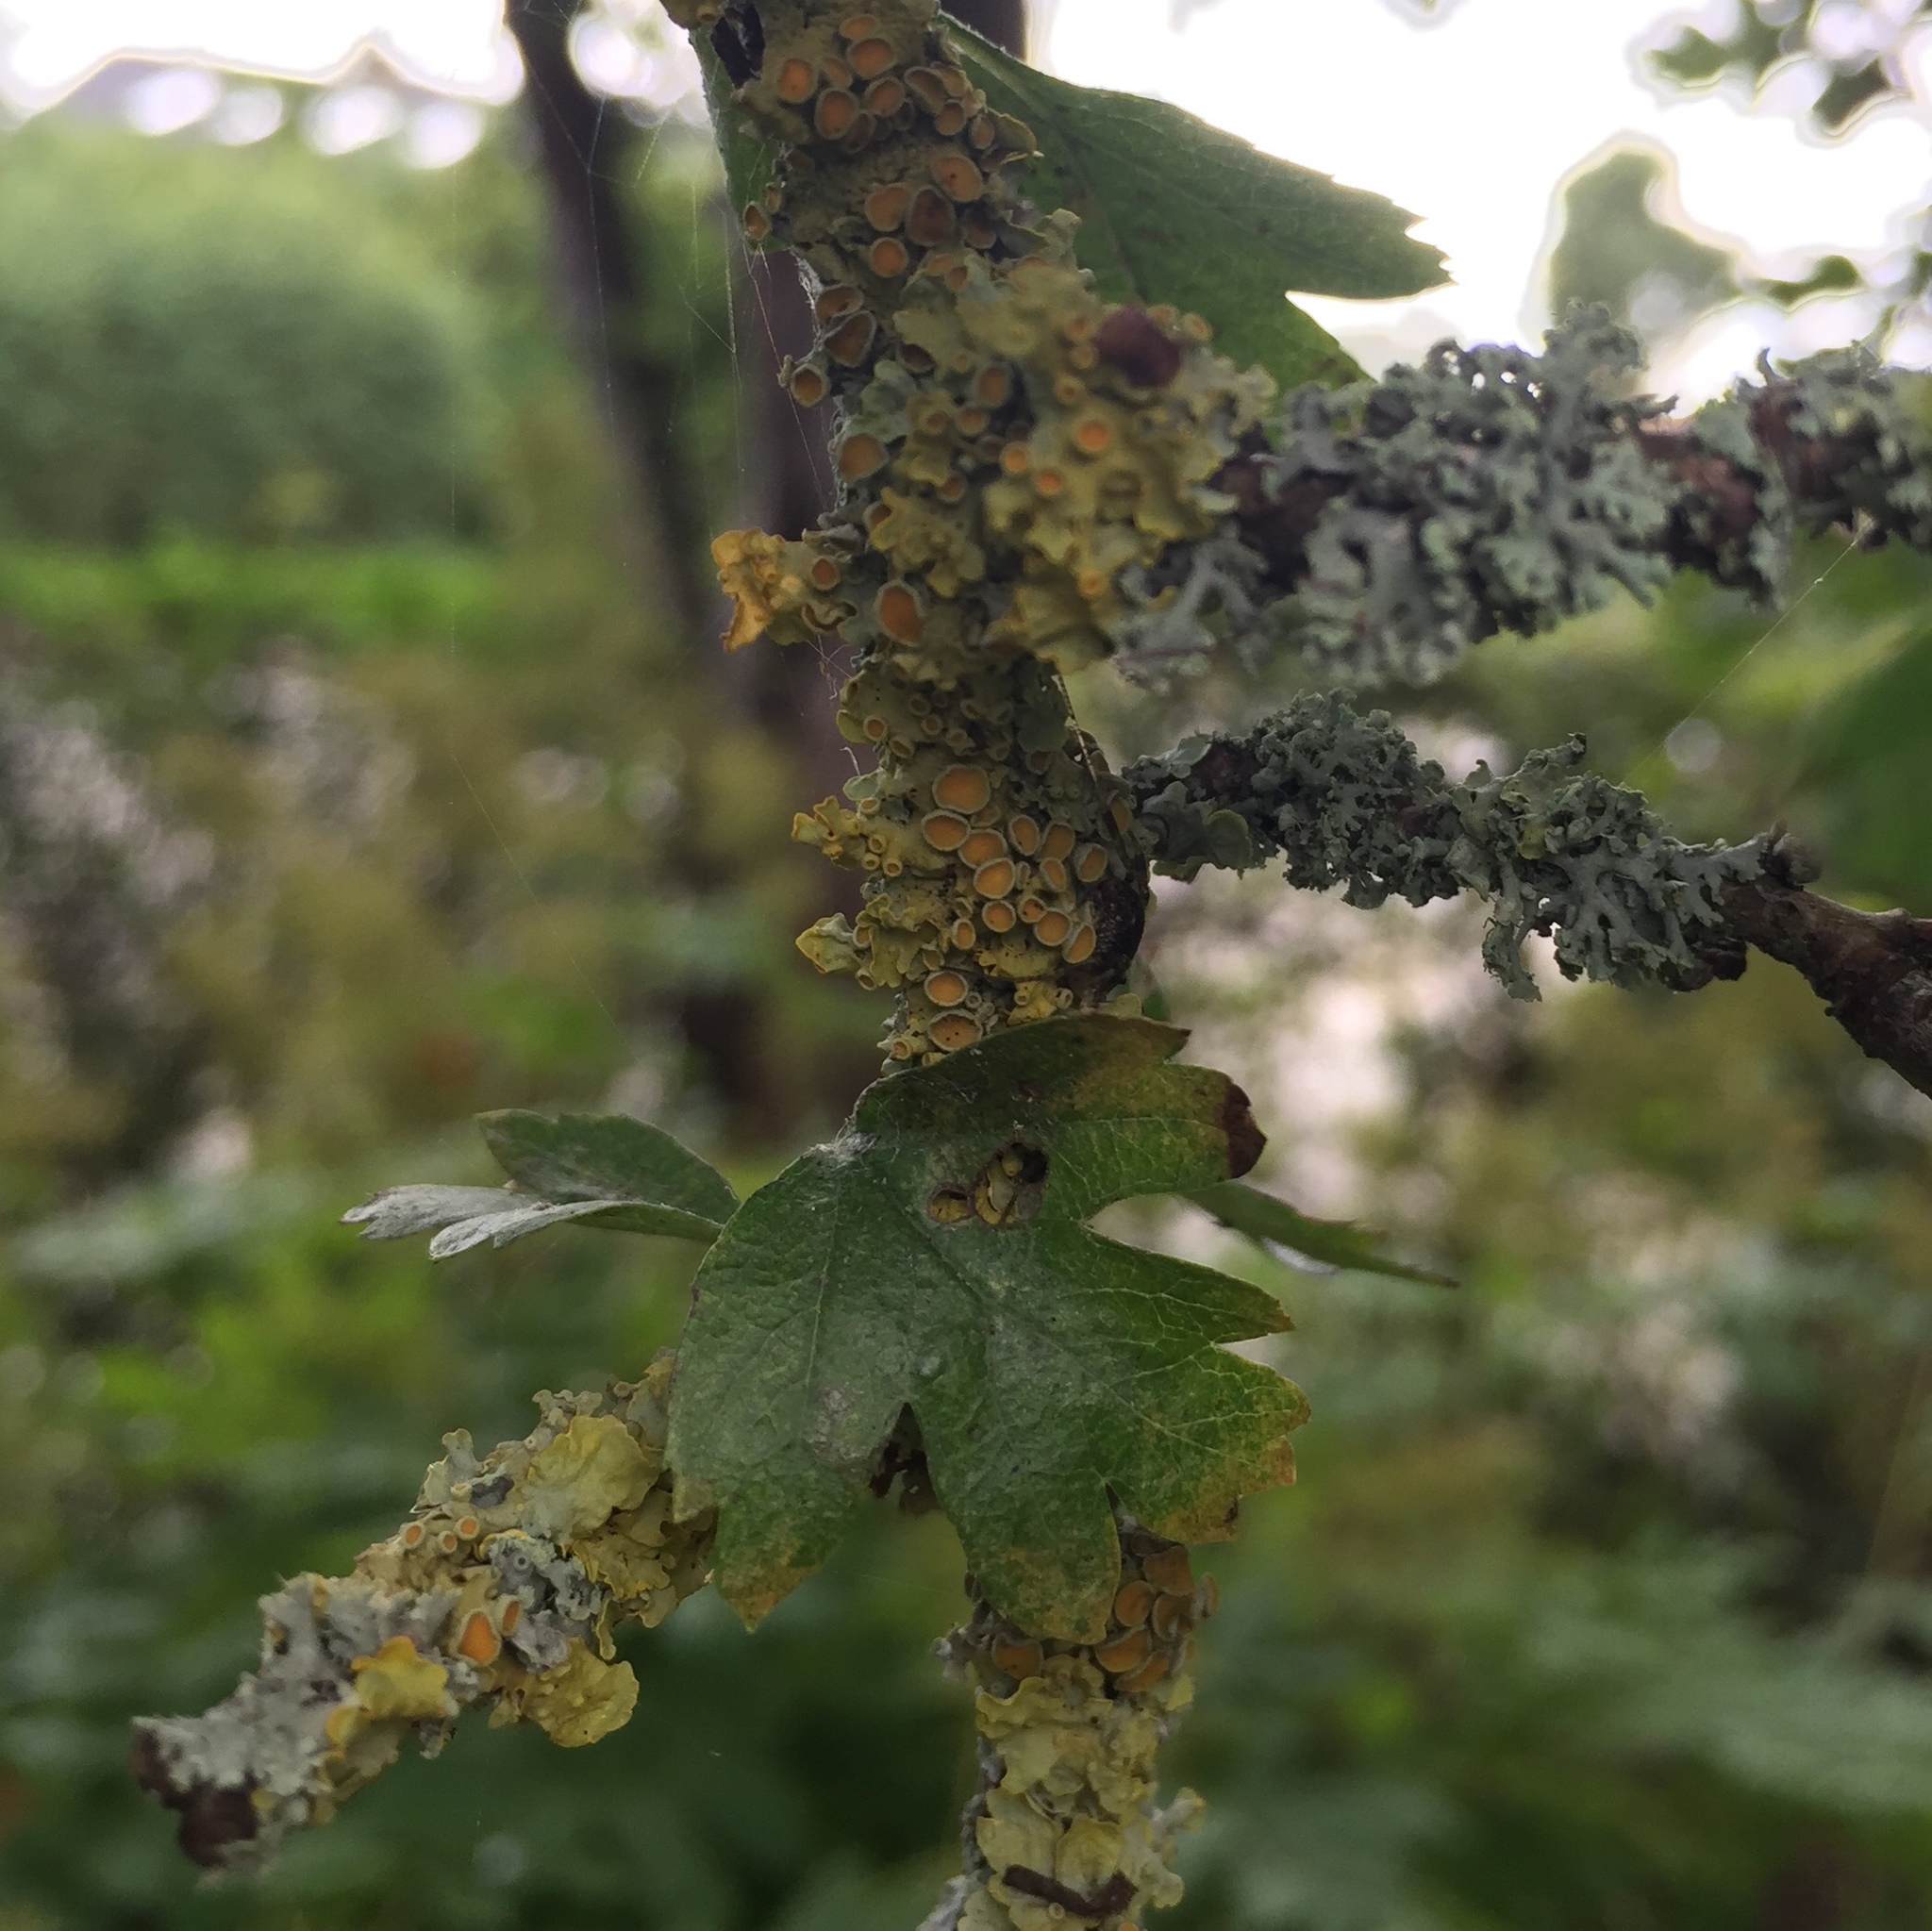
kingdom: Fungi
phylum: Ascomycota
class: Lecanoromycetes
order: Teloschistales
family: Teloschistaceae
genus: Xanthoria
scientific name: Xanthoria parietina
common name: Common orange lichen
